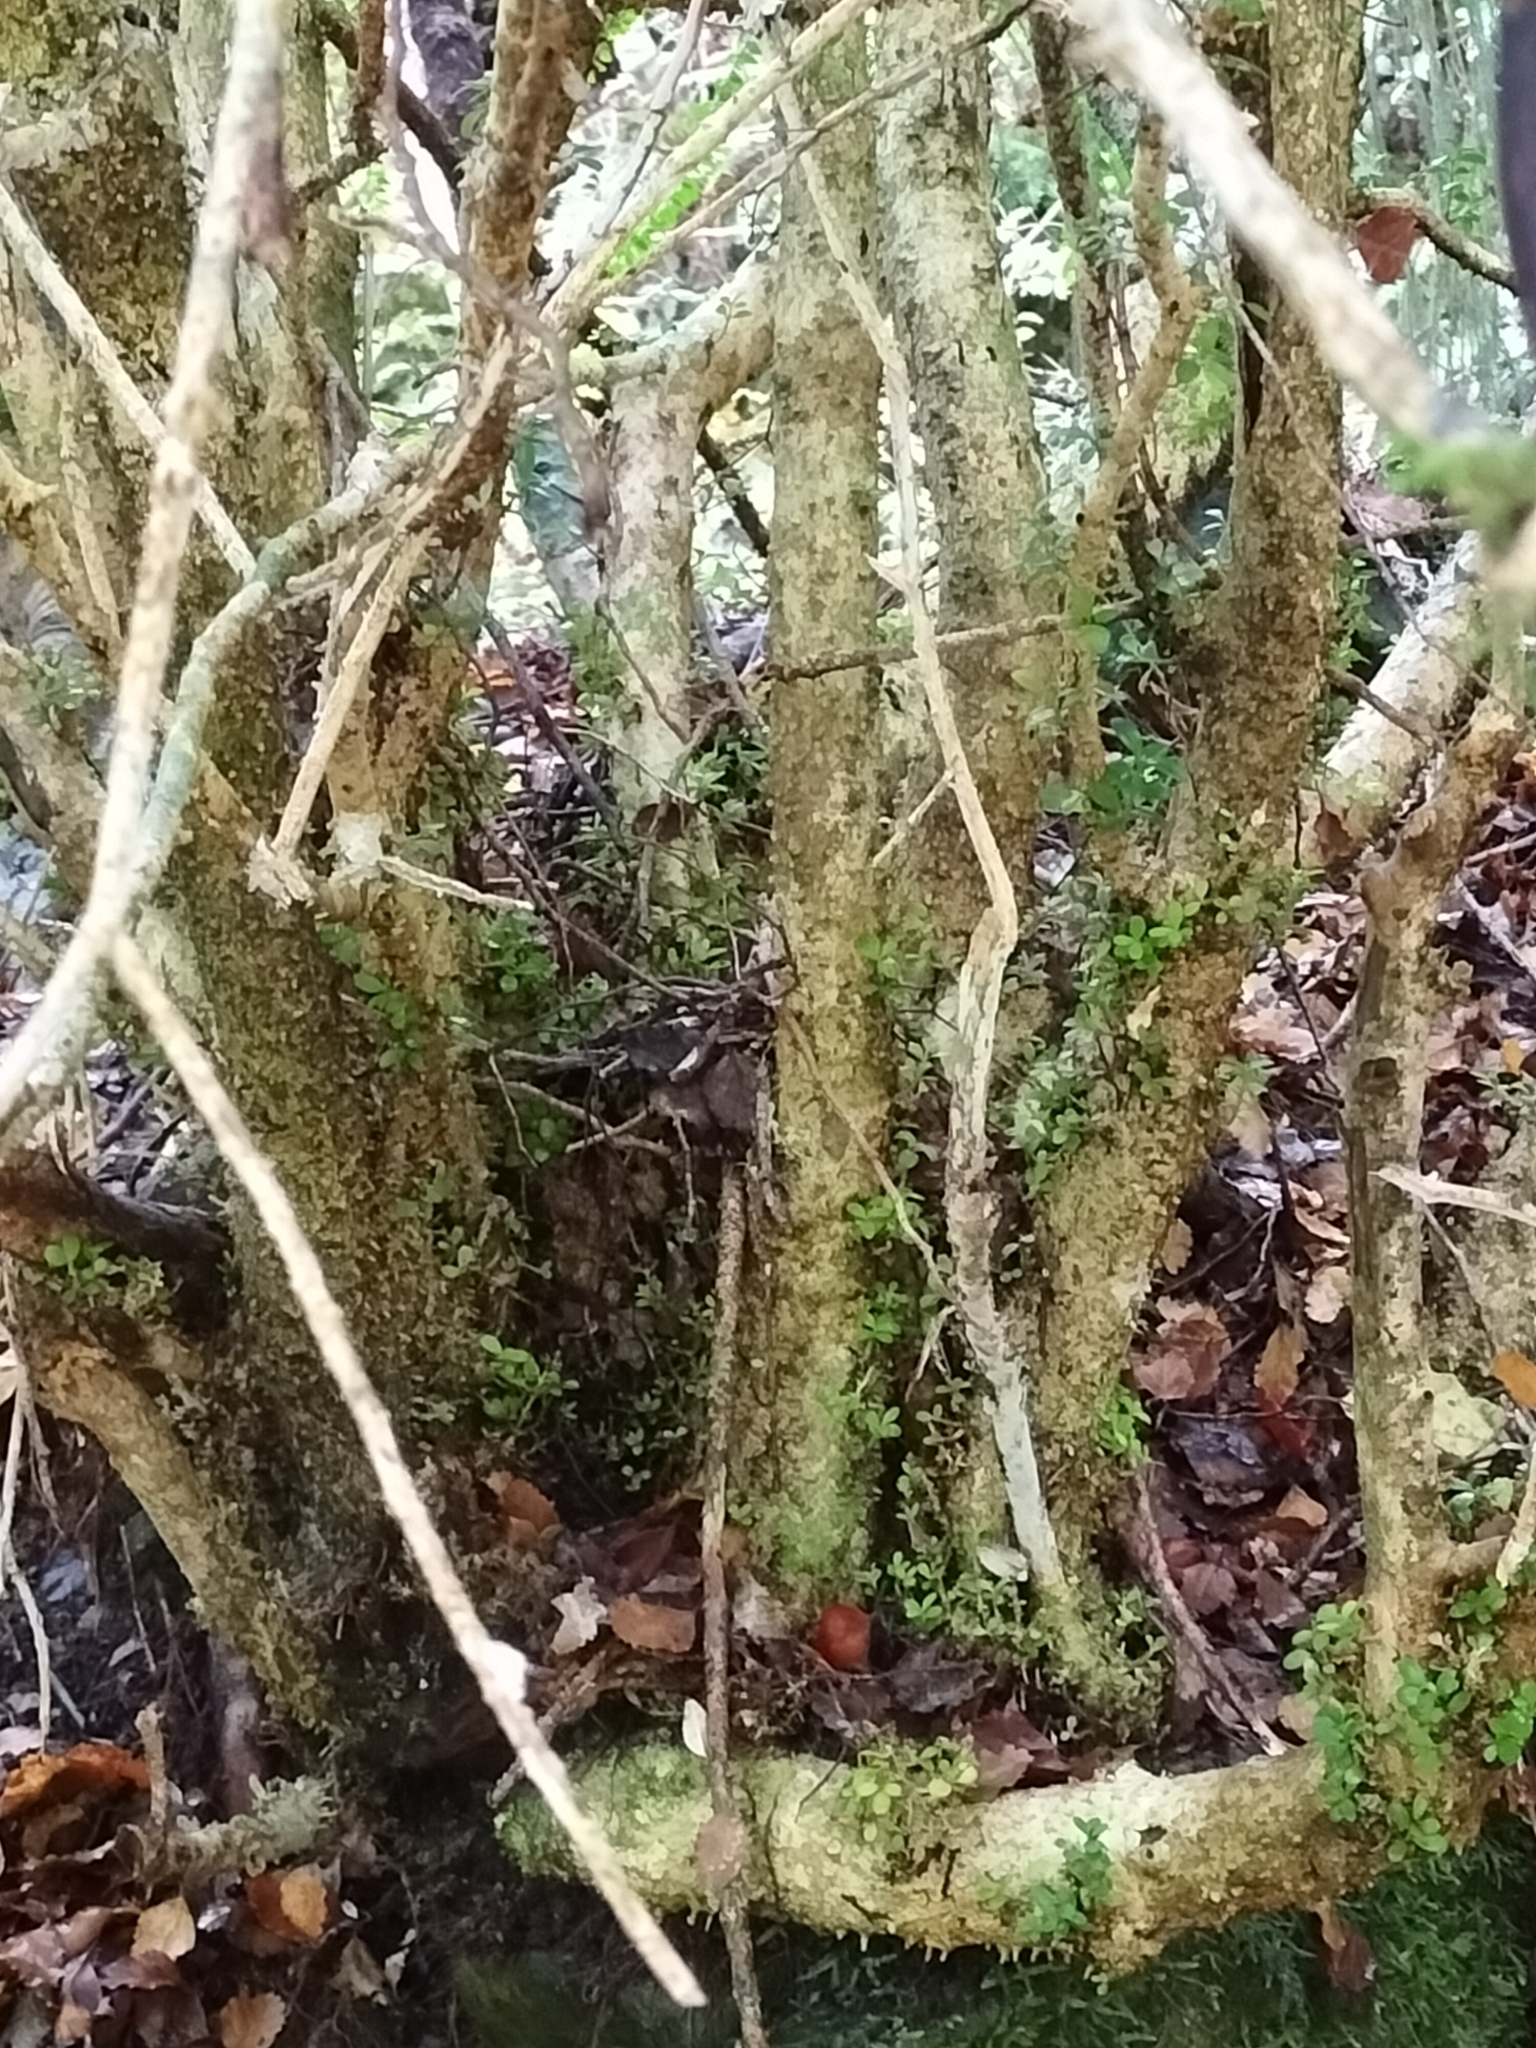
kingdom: Plantae
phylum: Tracheophyta
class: Magnoliopsida
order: Buxales
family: Buxaceae
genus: Buxus
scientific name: Buxus sempervirens
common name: Box
